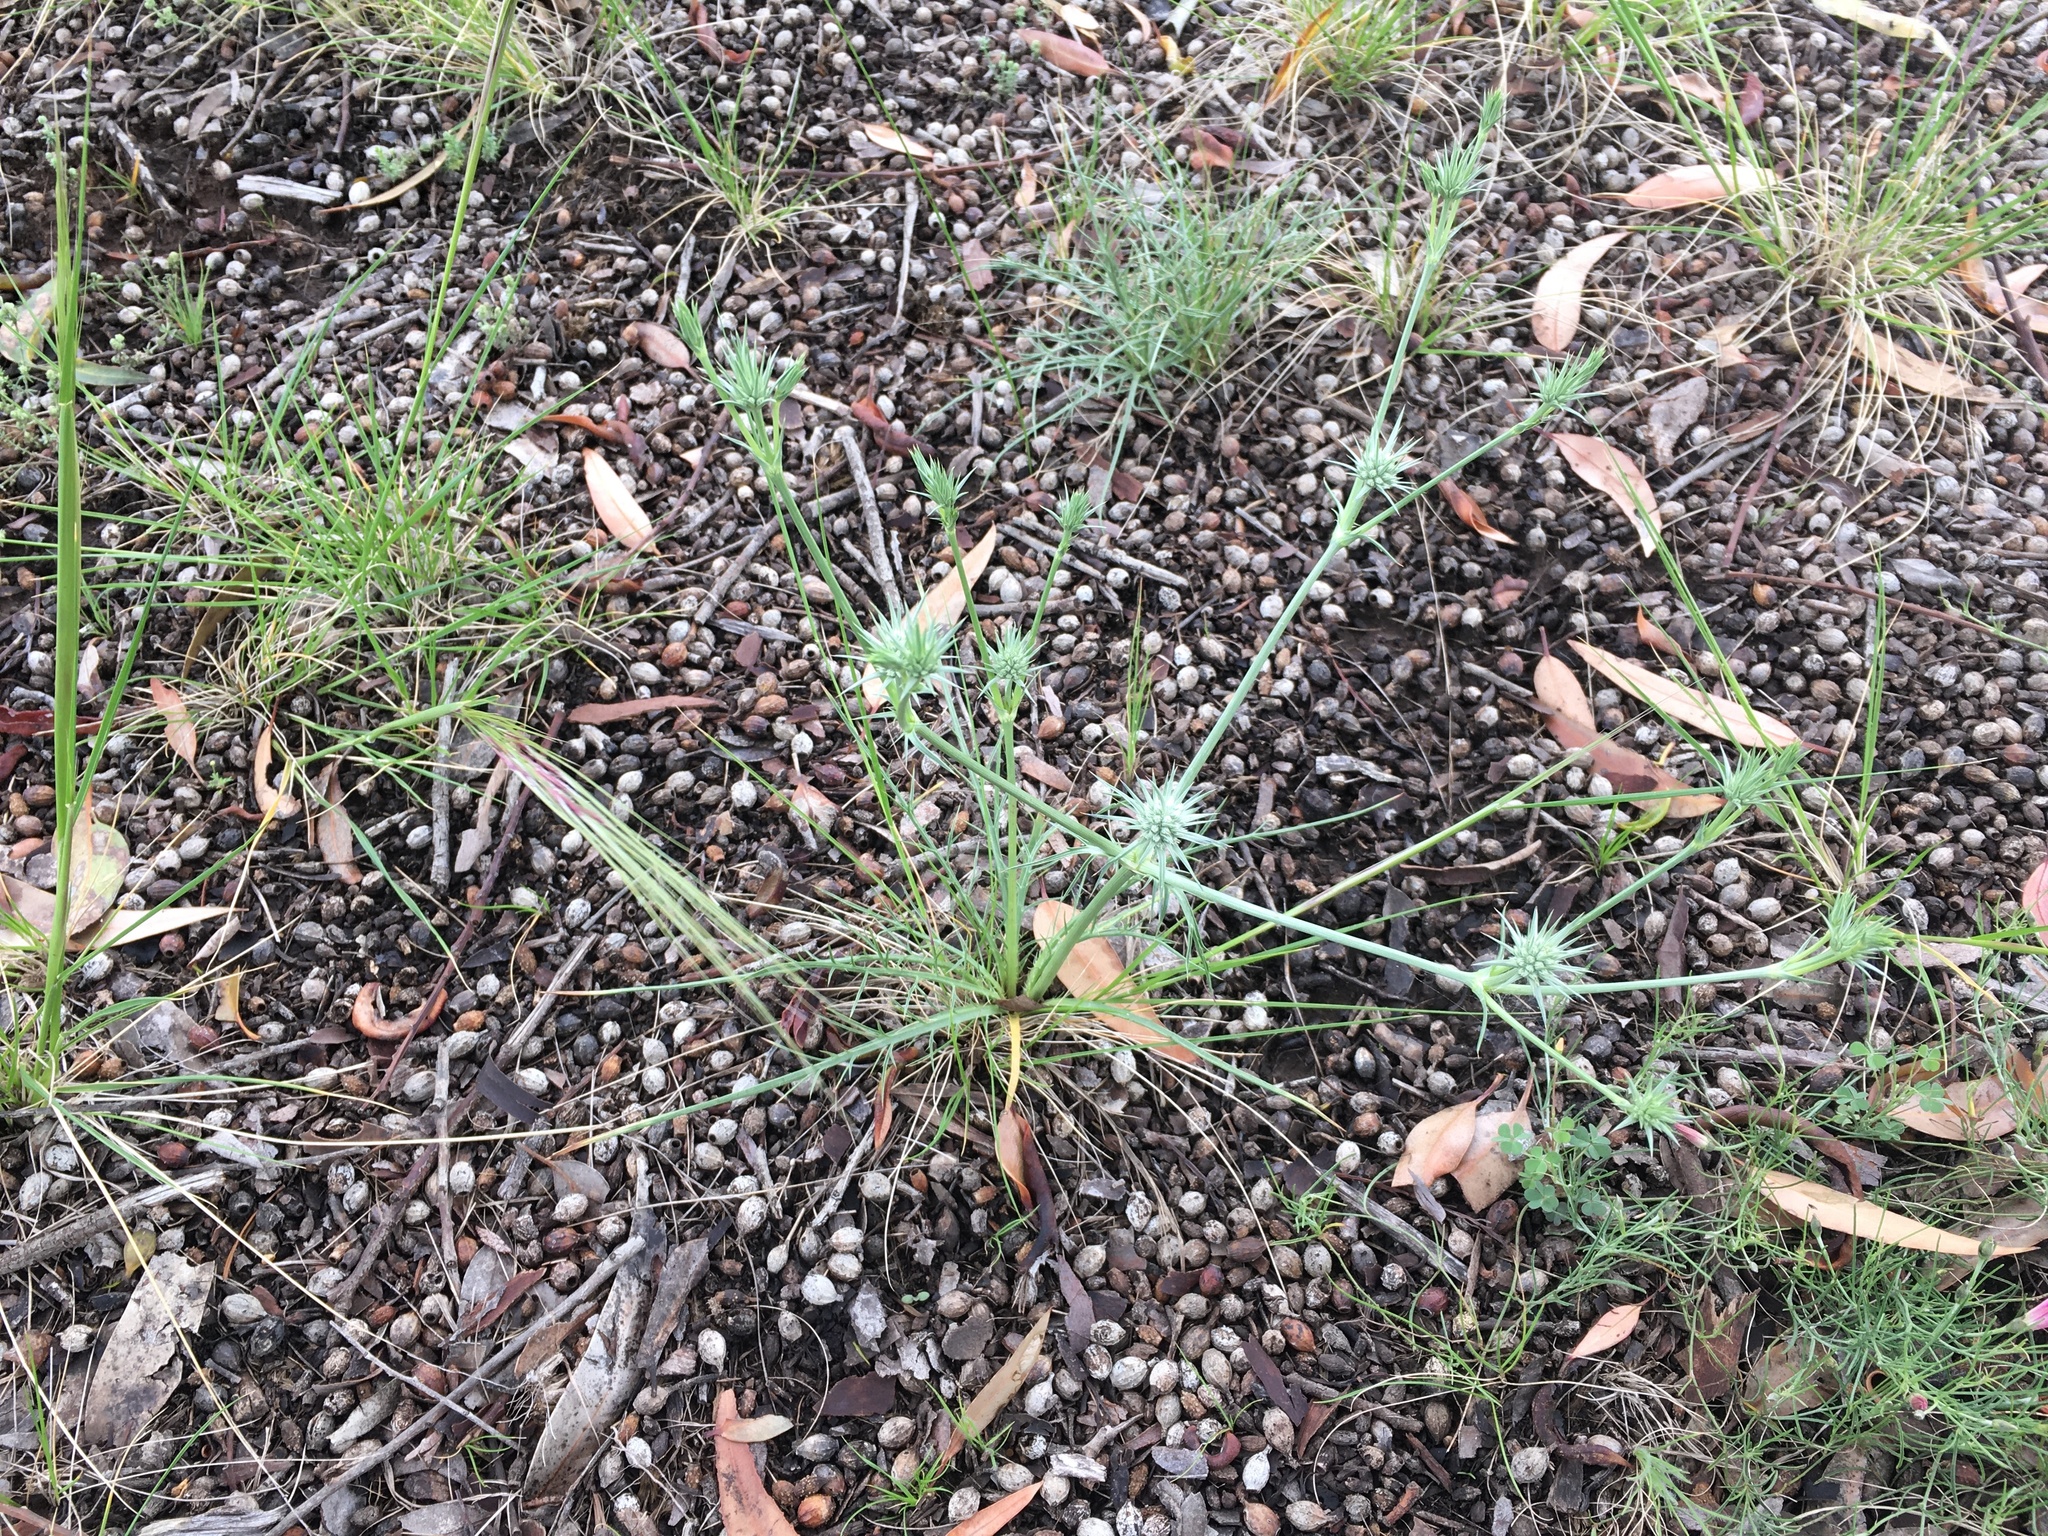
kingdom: Plantae
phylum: Tracheophyta
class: Magnoliopsida
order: Apiales
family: Apiaceae
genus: Eryngium
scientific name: Eryngium ovinum
